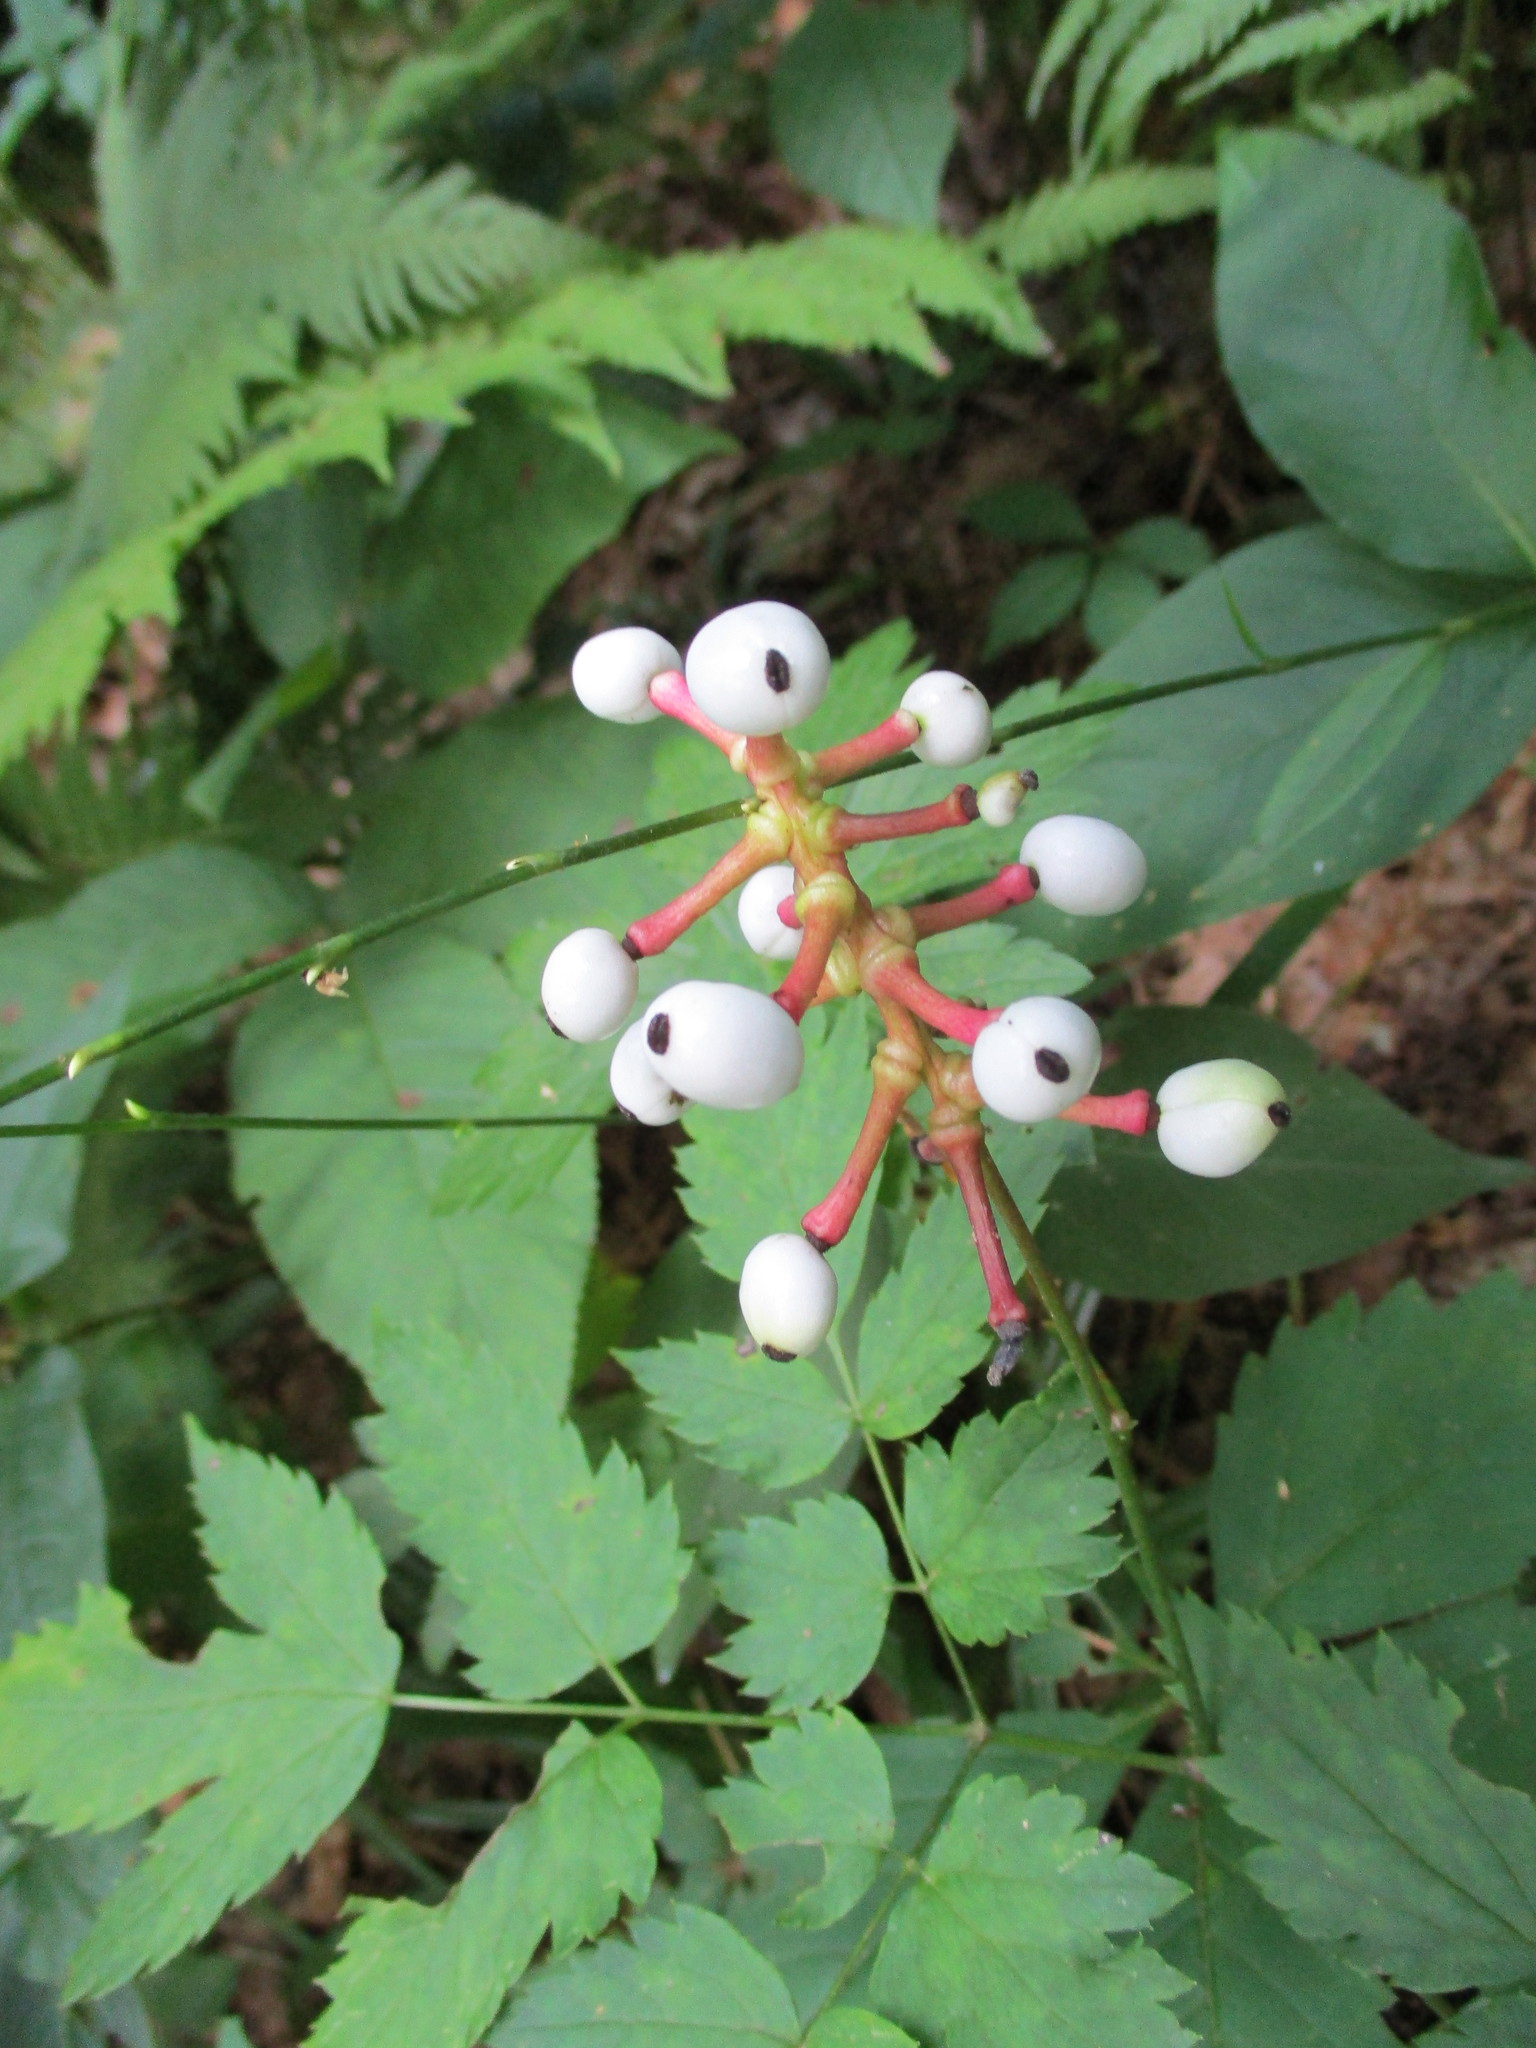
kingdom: Plantae
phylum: Tracheophyta
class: Magnoliopsida
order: Ranunculales
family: Ranunculaceae
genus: Actaea
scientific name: Actaea pachypoda
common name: Doll's-eyes
